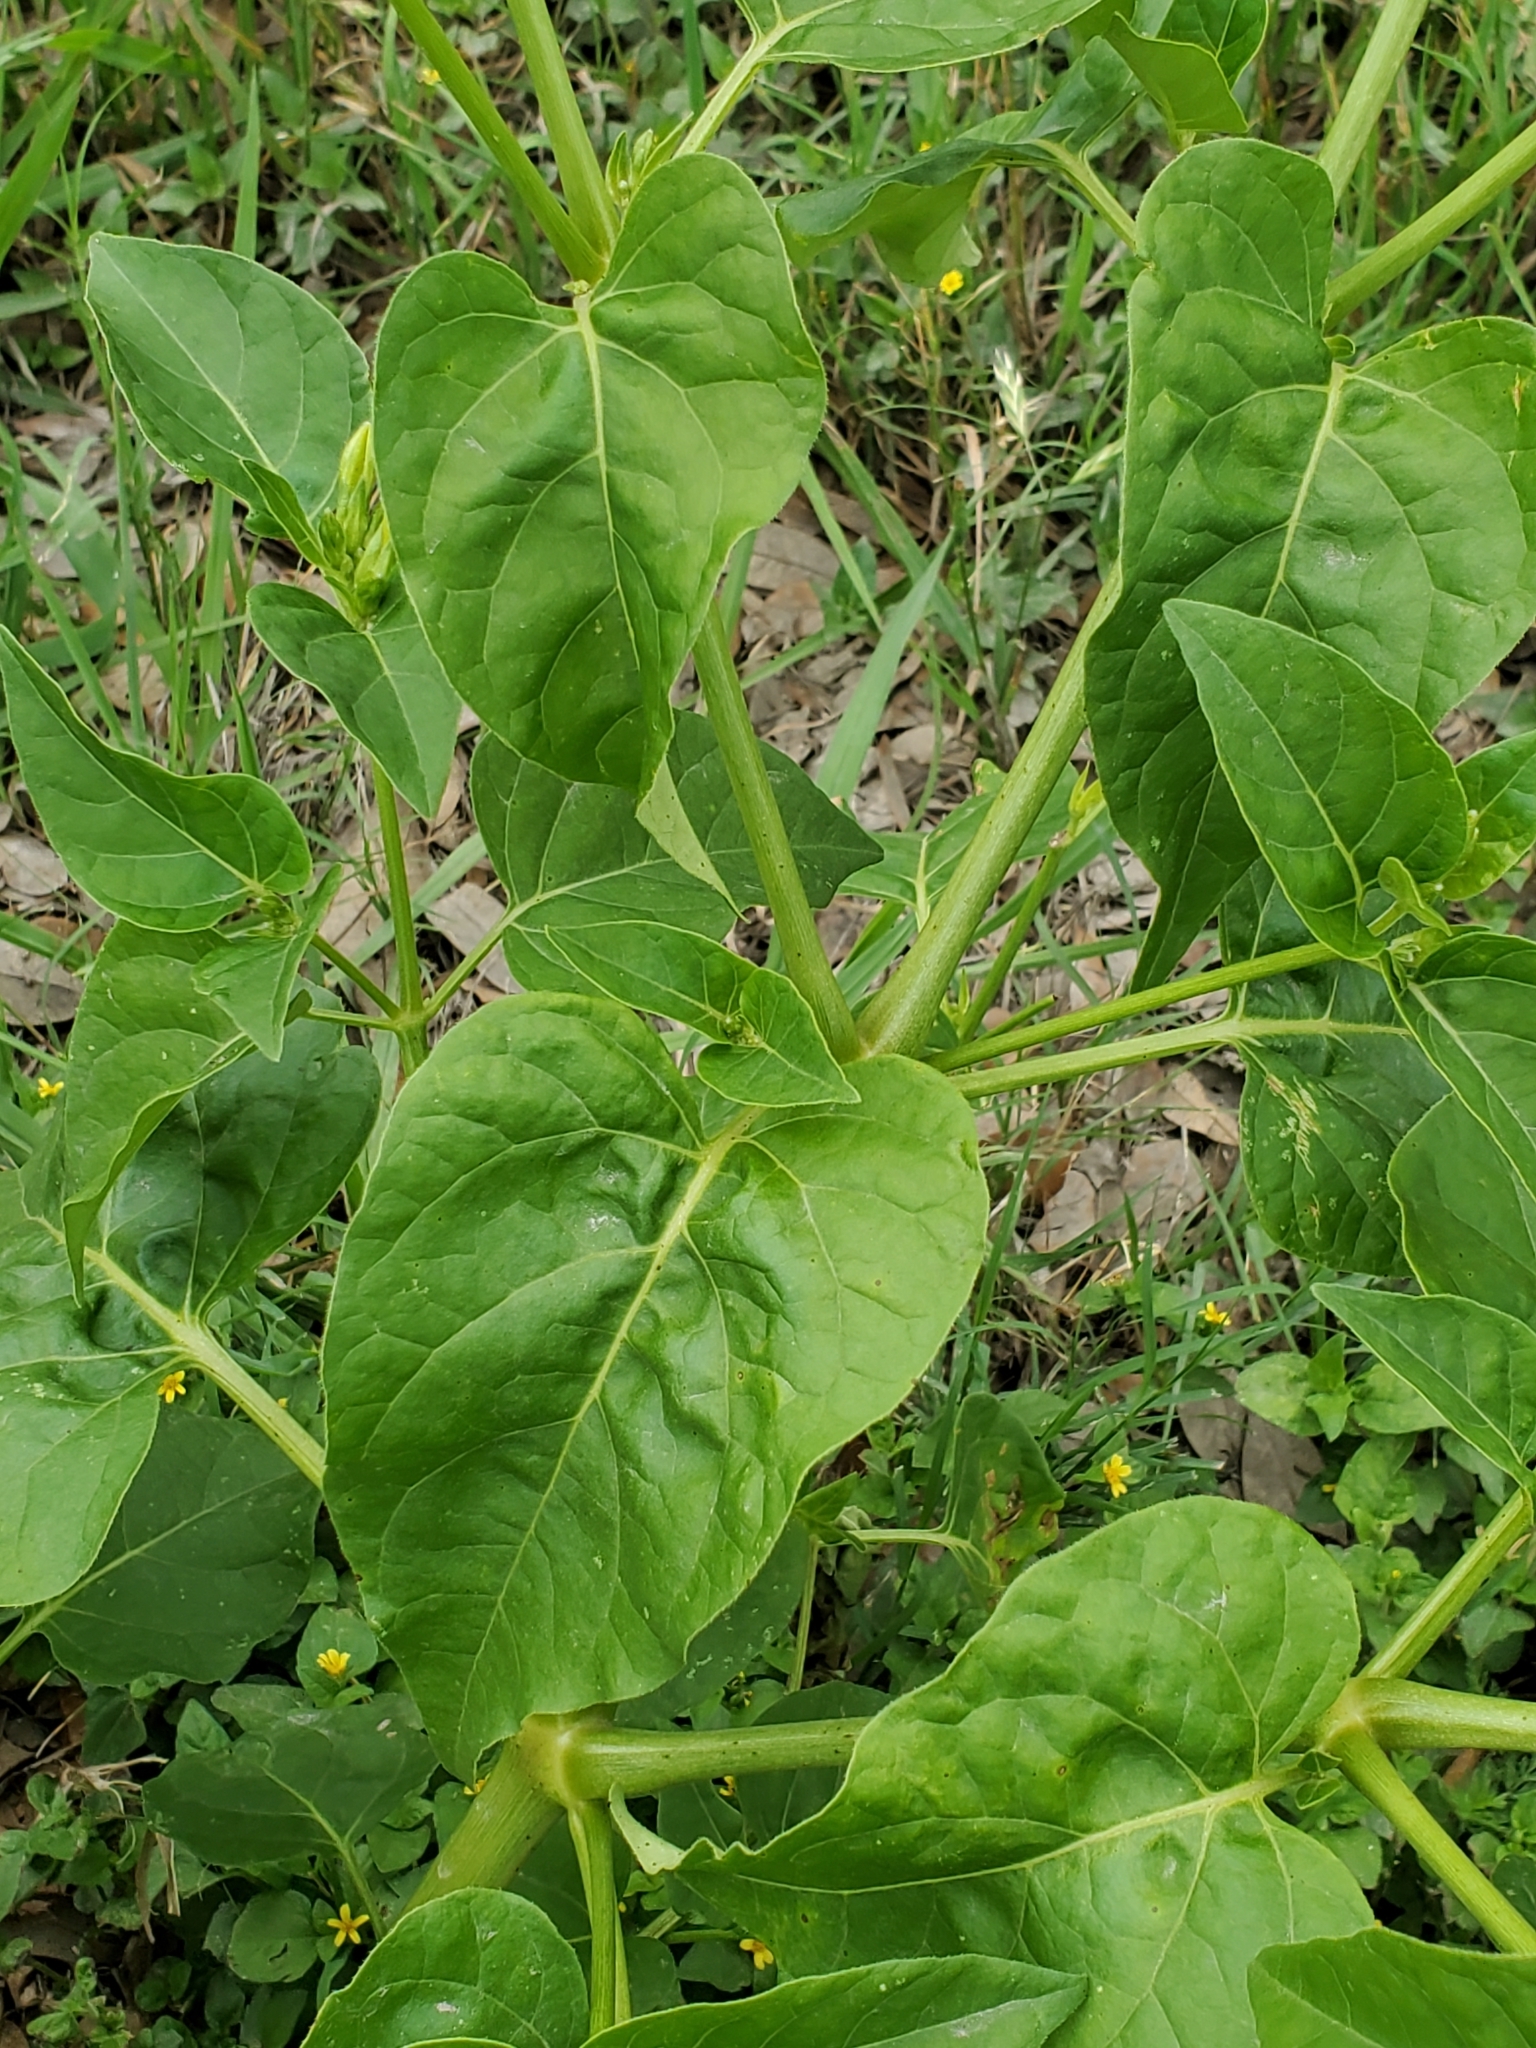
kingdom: Plantae
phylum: Tracheophyta
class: Magnoliopsida
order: Caryophyllales
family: Nyctaginaceae
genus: Mirabilis
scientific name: Mirabilis jalapa
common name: Marvel-of-peru
